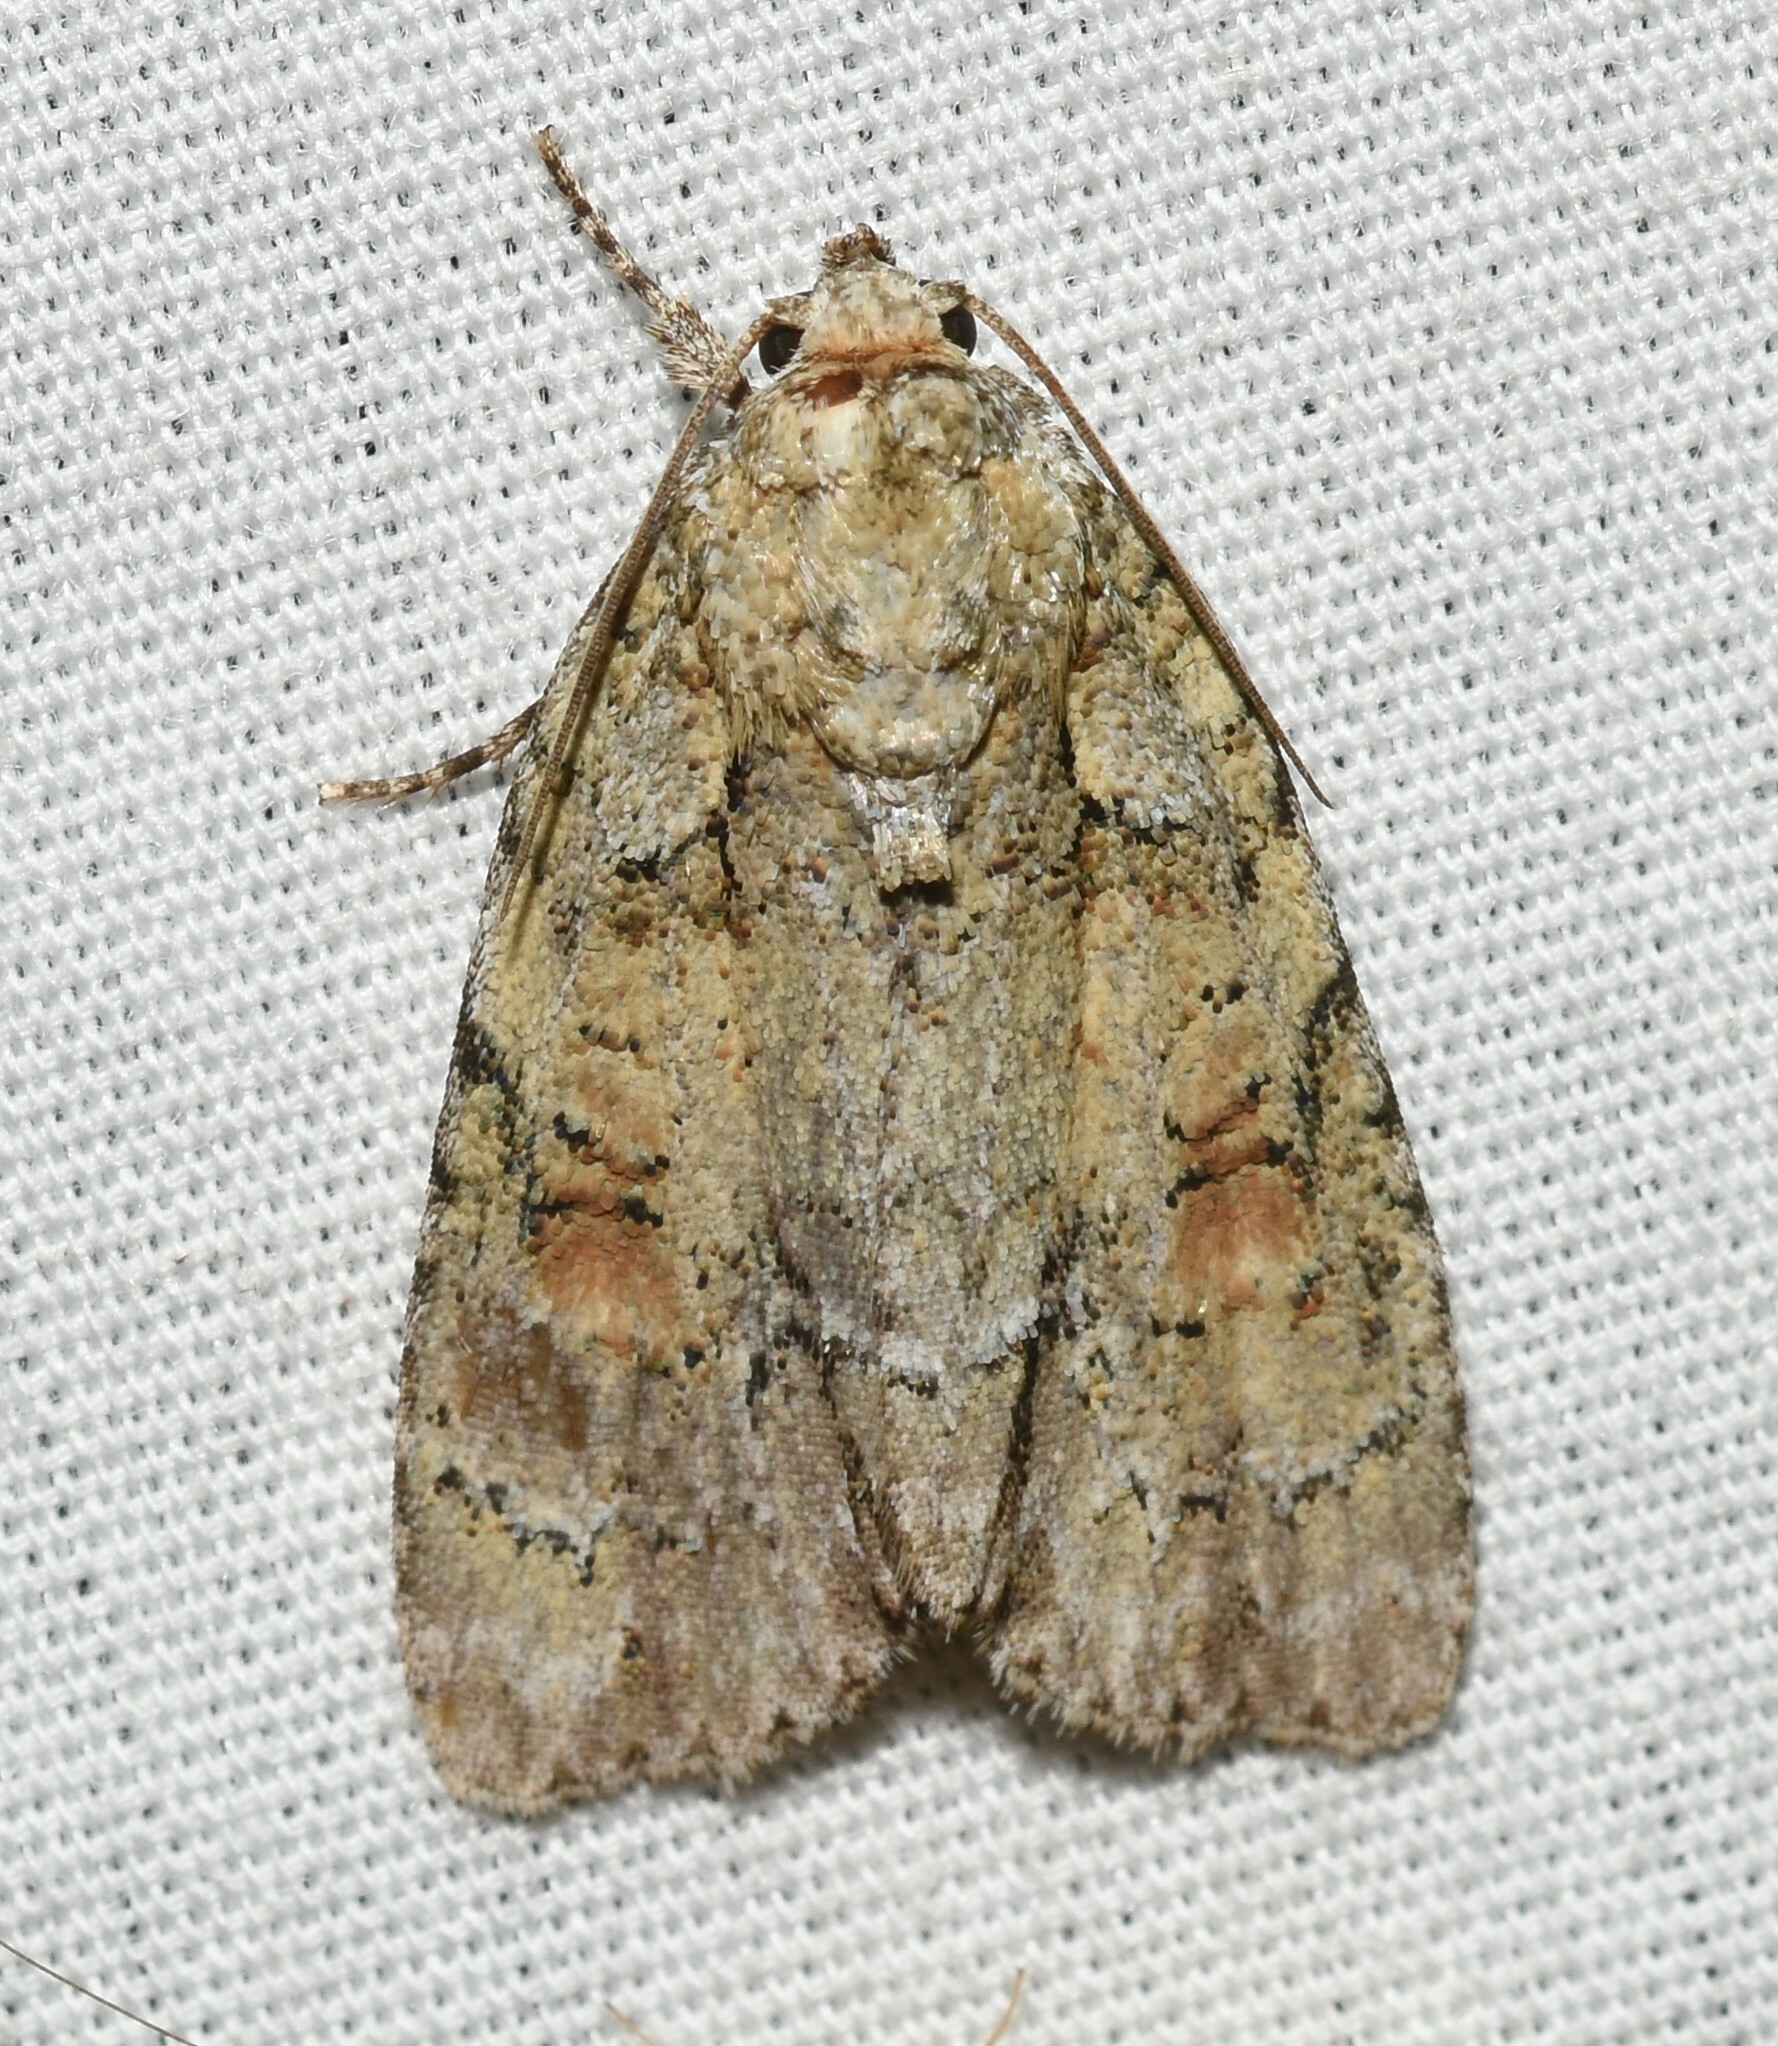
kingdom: Animalia
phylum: Arthropoda
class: Insecta
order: Lepidoptera
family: Noctuidae
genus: Acronicta
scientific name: Acronicta exilis
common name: Exiled dagger moth
